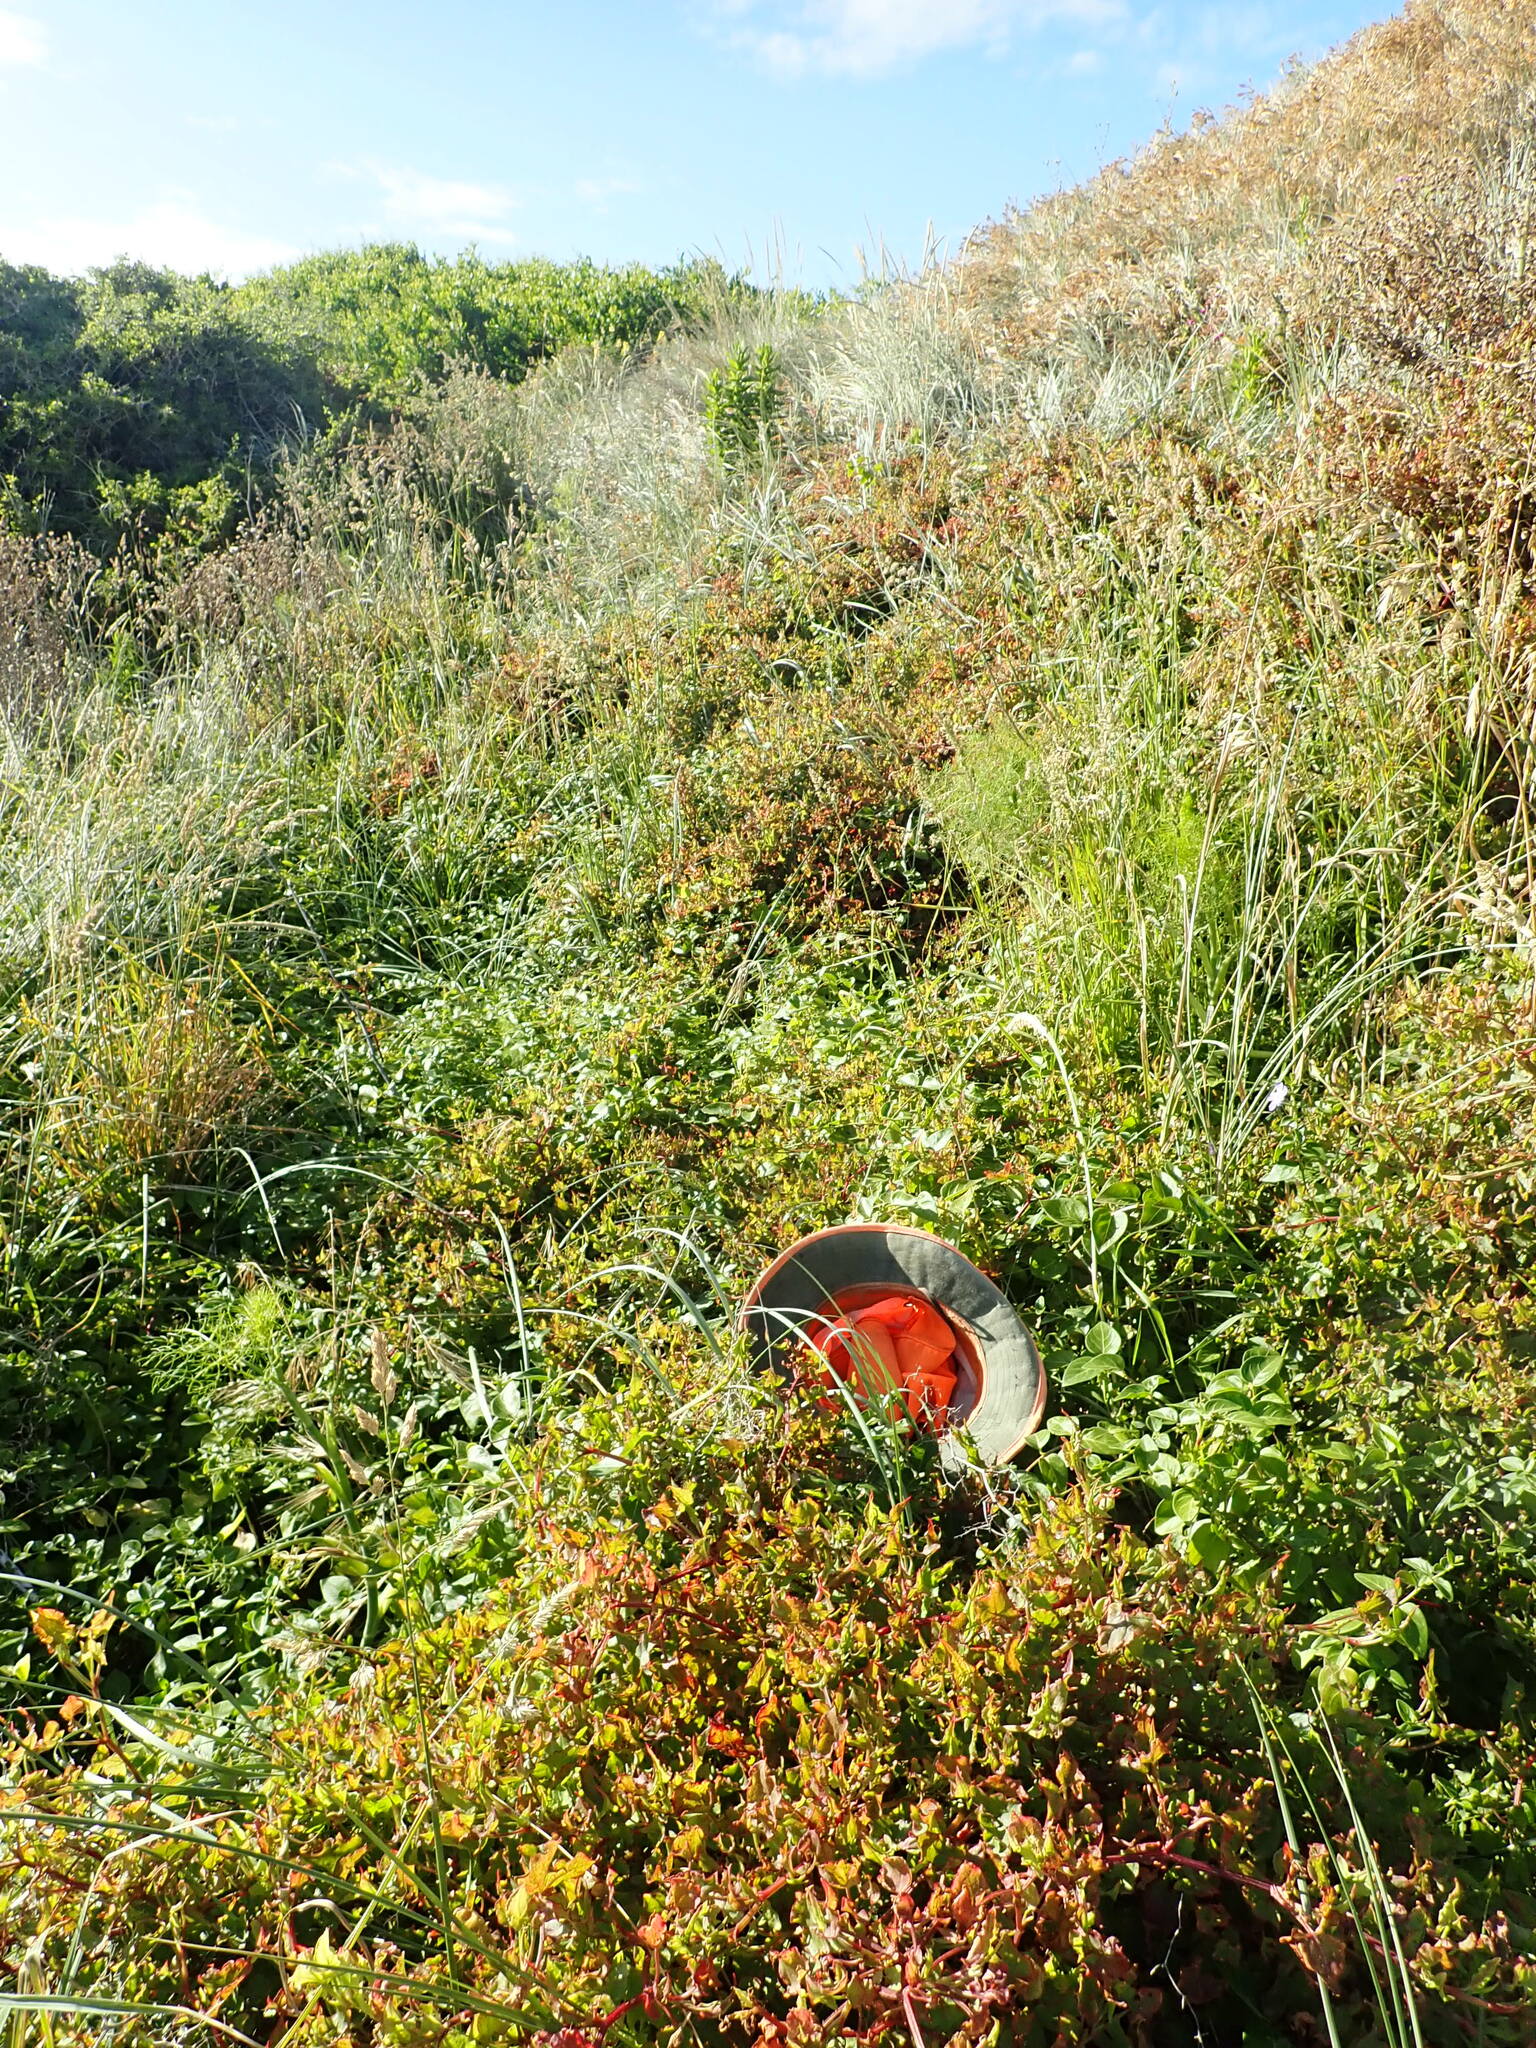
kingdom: Plantae
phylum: Tracheophyta
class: Magnoliopsida
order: Gentianales
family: Apocynaceae
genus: Vinca
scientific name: Vinca major
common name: Greater periwinkle
